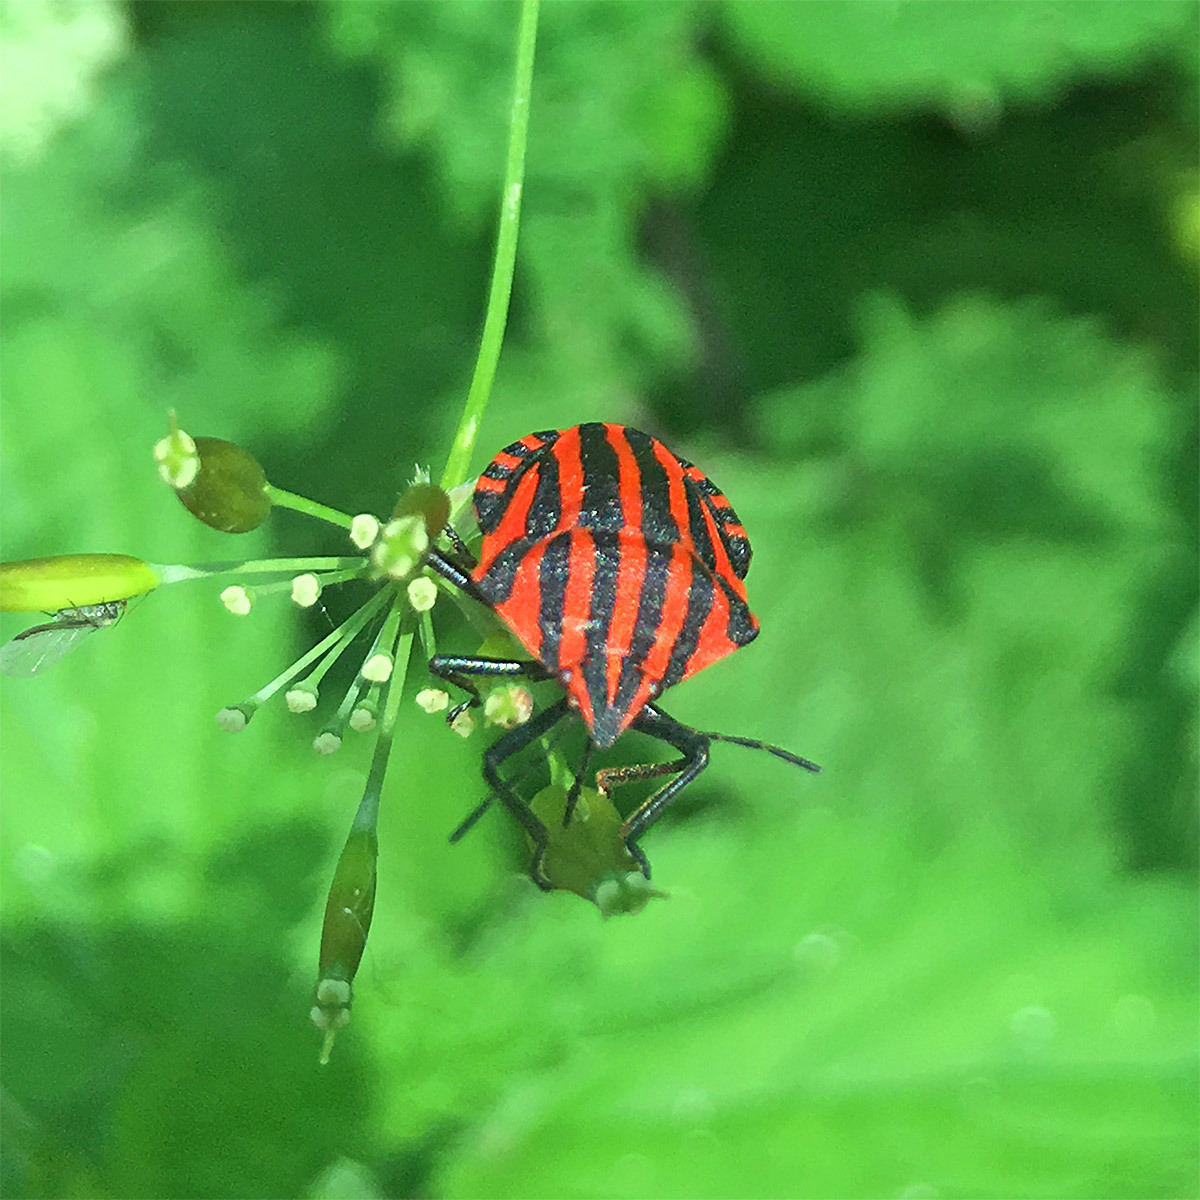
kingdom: Animalia
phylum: Arthropoda
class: Insecta
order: Hemiptera
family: Pentatomidae
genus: Graphosoma
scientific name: Graphosoma italicum
